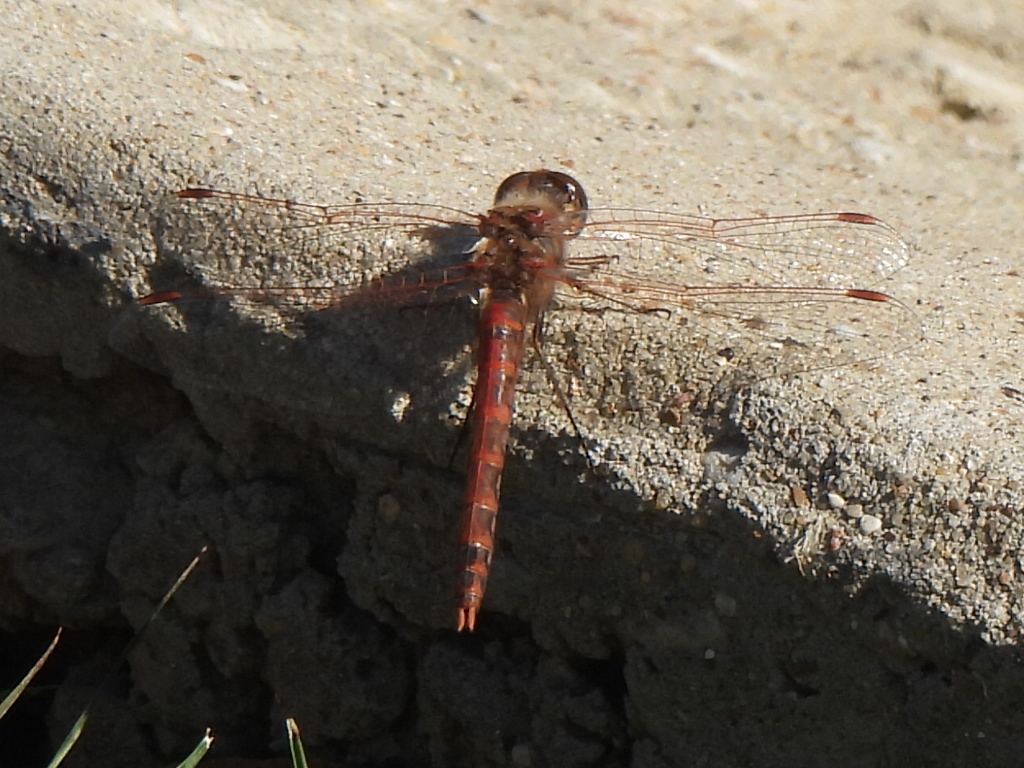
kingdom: Animalia
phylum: Arthropoda
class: Insecta
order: Odonata
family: Libellulidae
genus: Sympetrum
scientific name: Sympetrum corruptum
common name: Variegated meadowhawk
